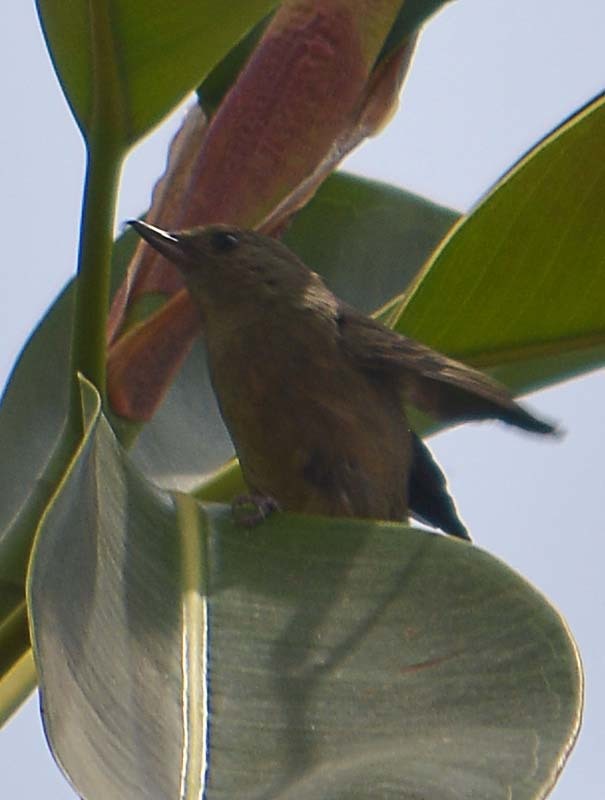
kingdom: Animalia
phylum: Chordata
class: Aves
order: Passeriformes
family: Thraupidae
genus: Diglossa
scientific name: Diglossa baritula
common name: Cinnamon-bellied flowerpiercer
